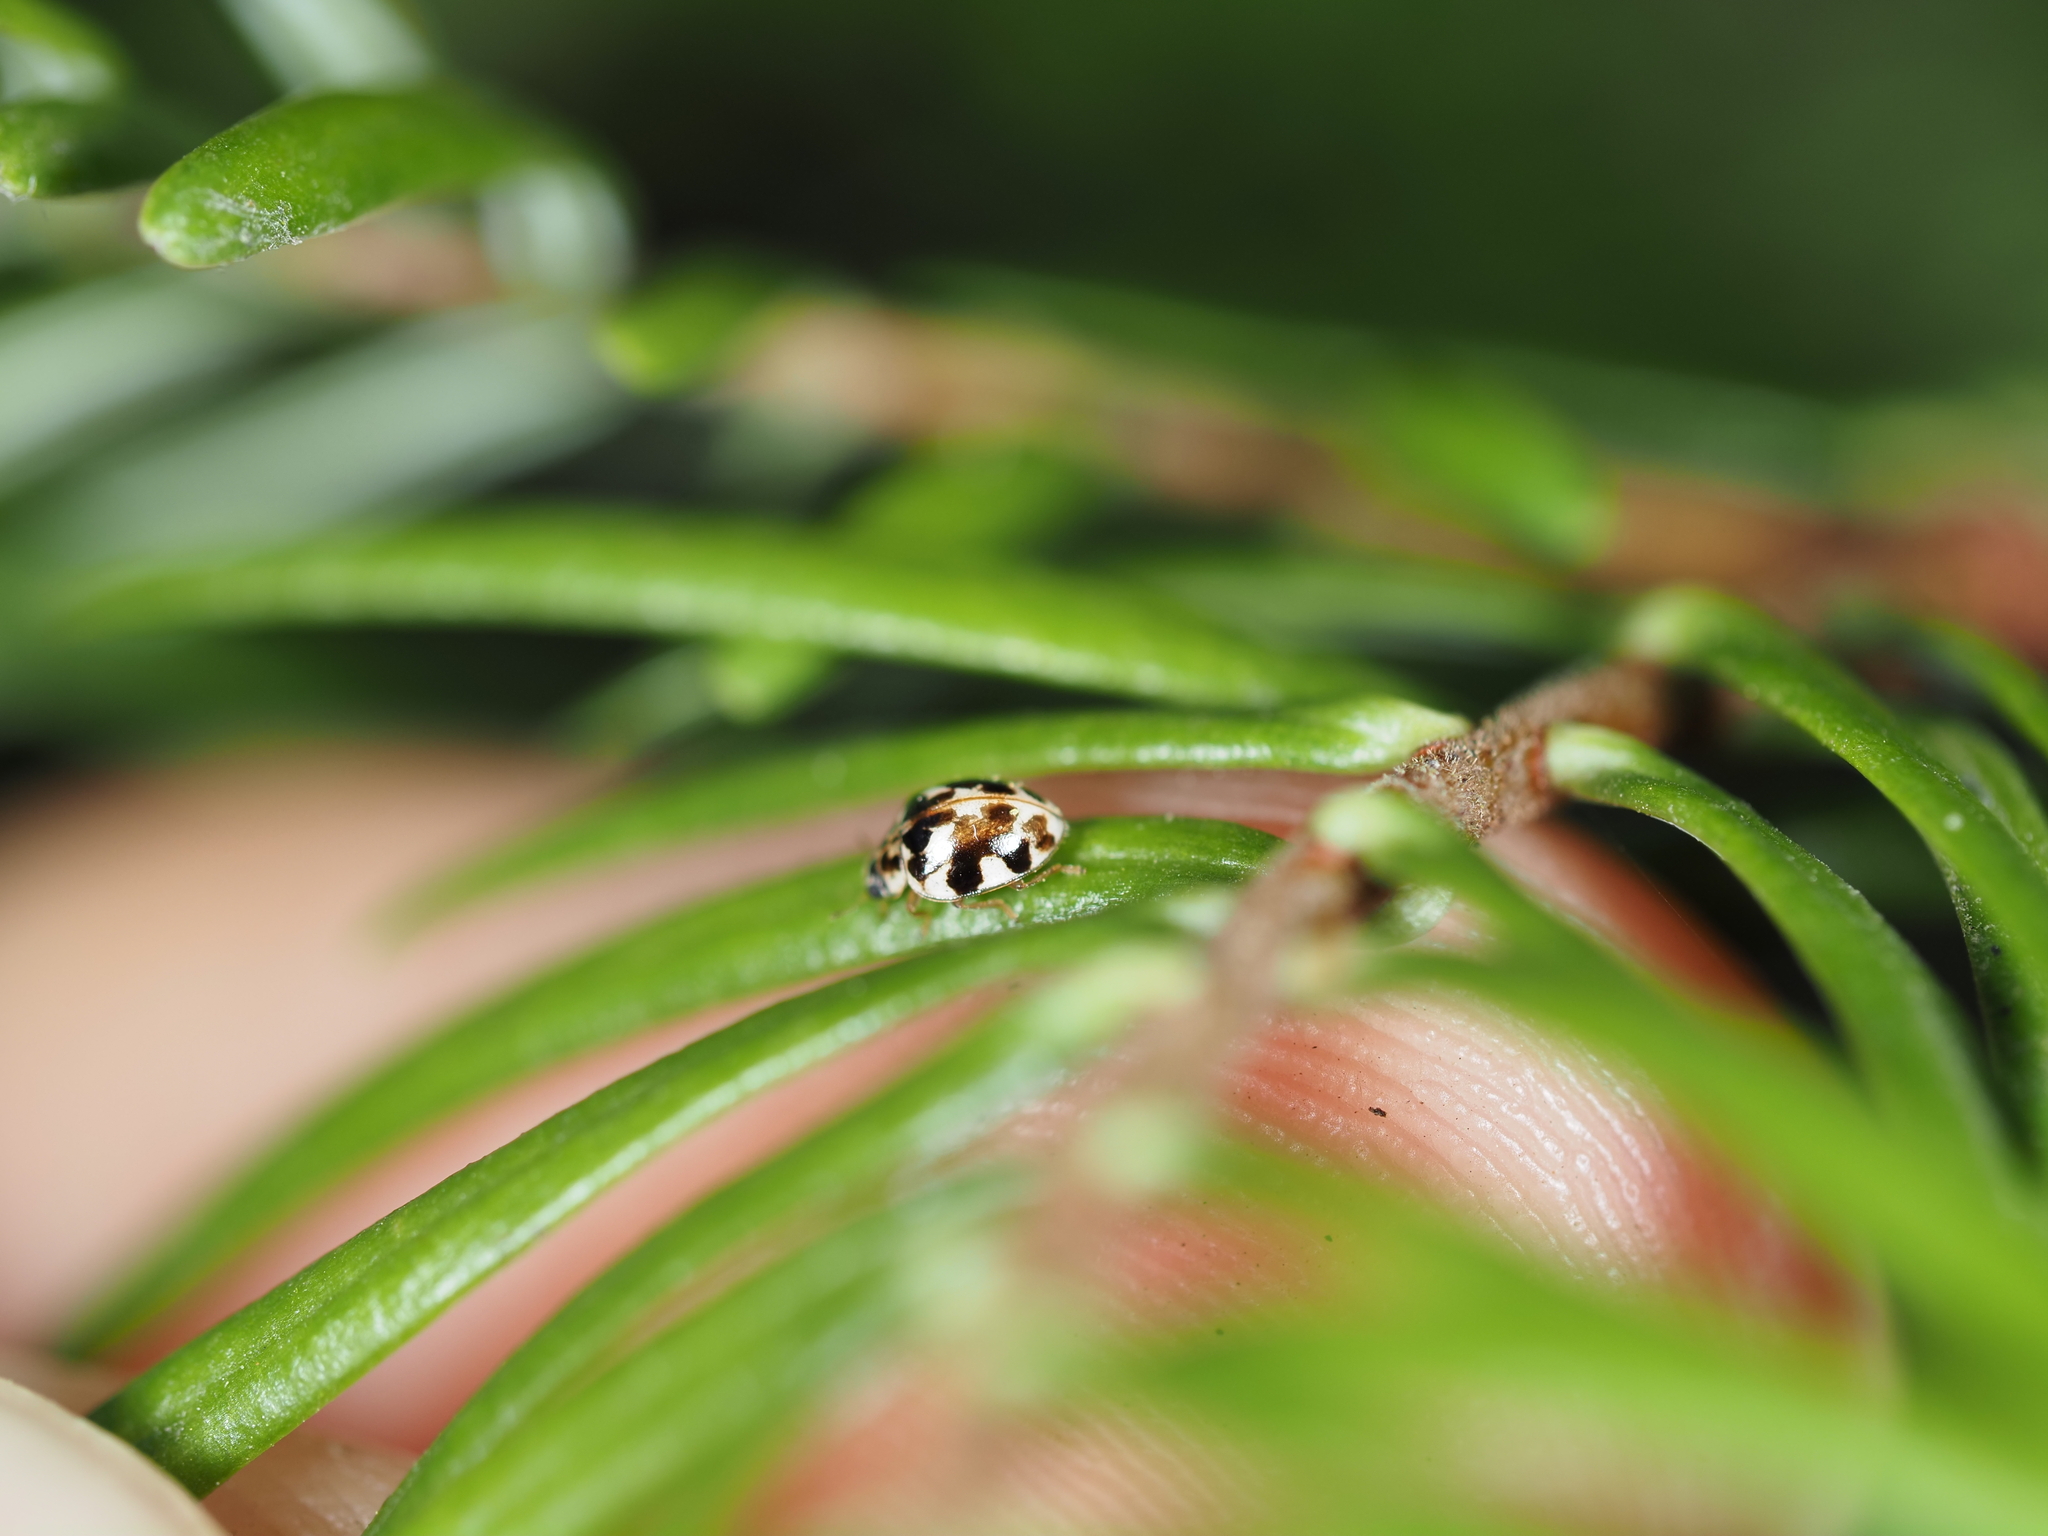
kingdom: Animalia
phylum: Arthropoda
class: Insecta
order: Coleoptera
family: Coccinellidae
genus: Psyllobora
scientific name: Psyllobora vigintimaculata
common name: Ladybird beetle
